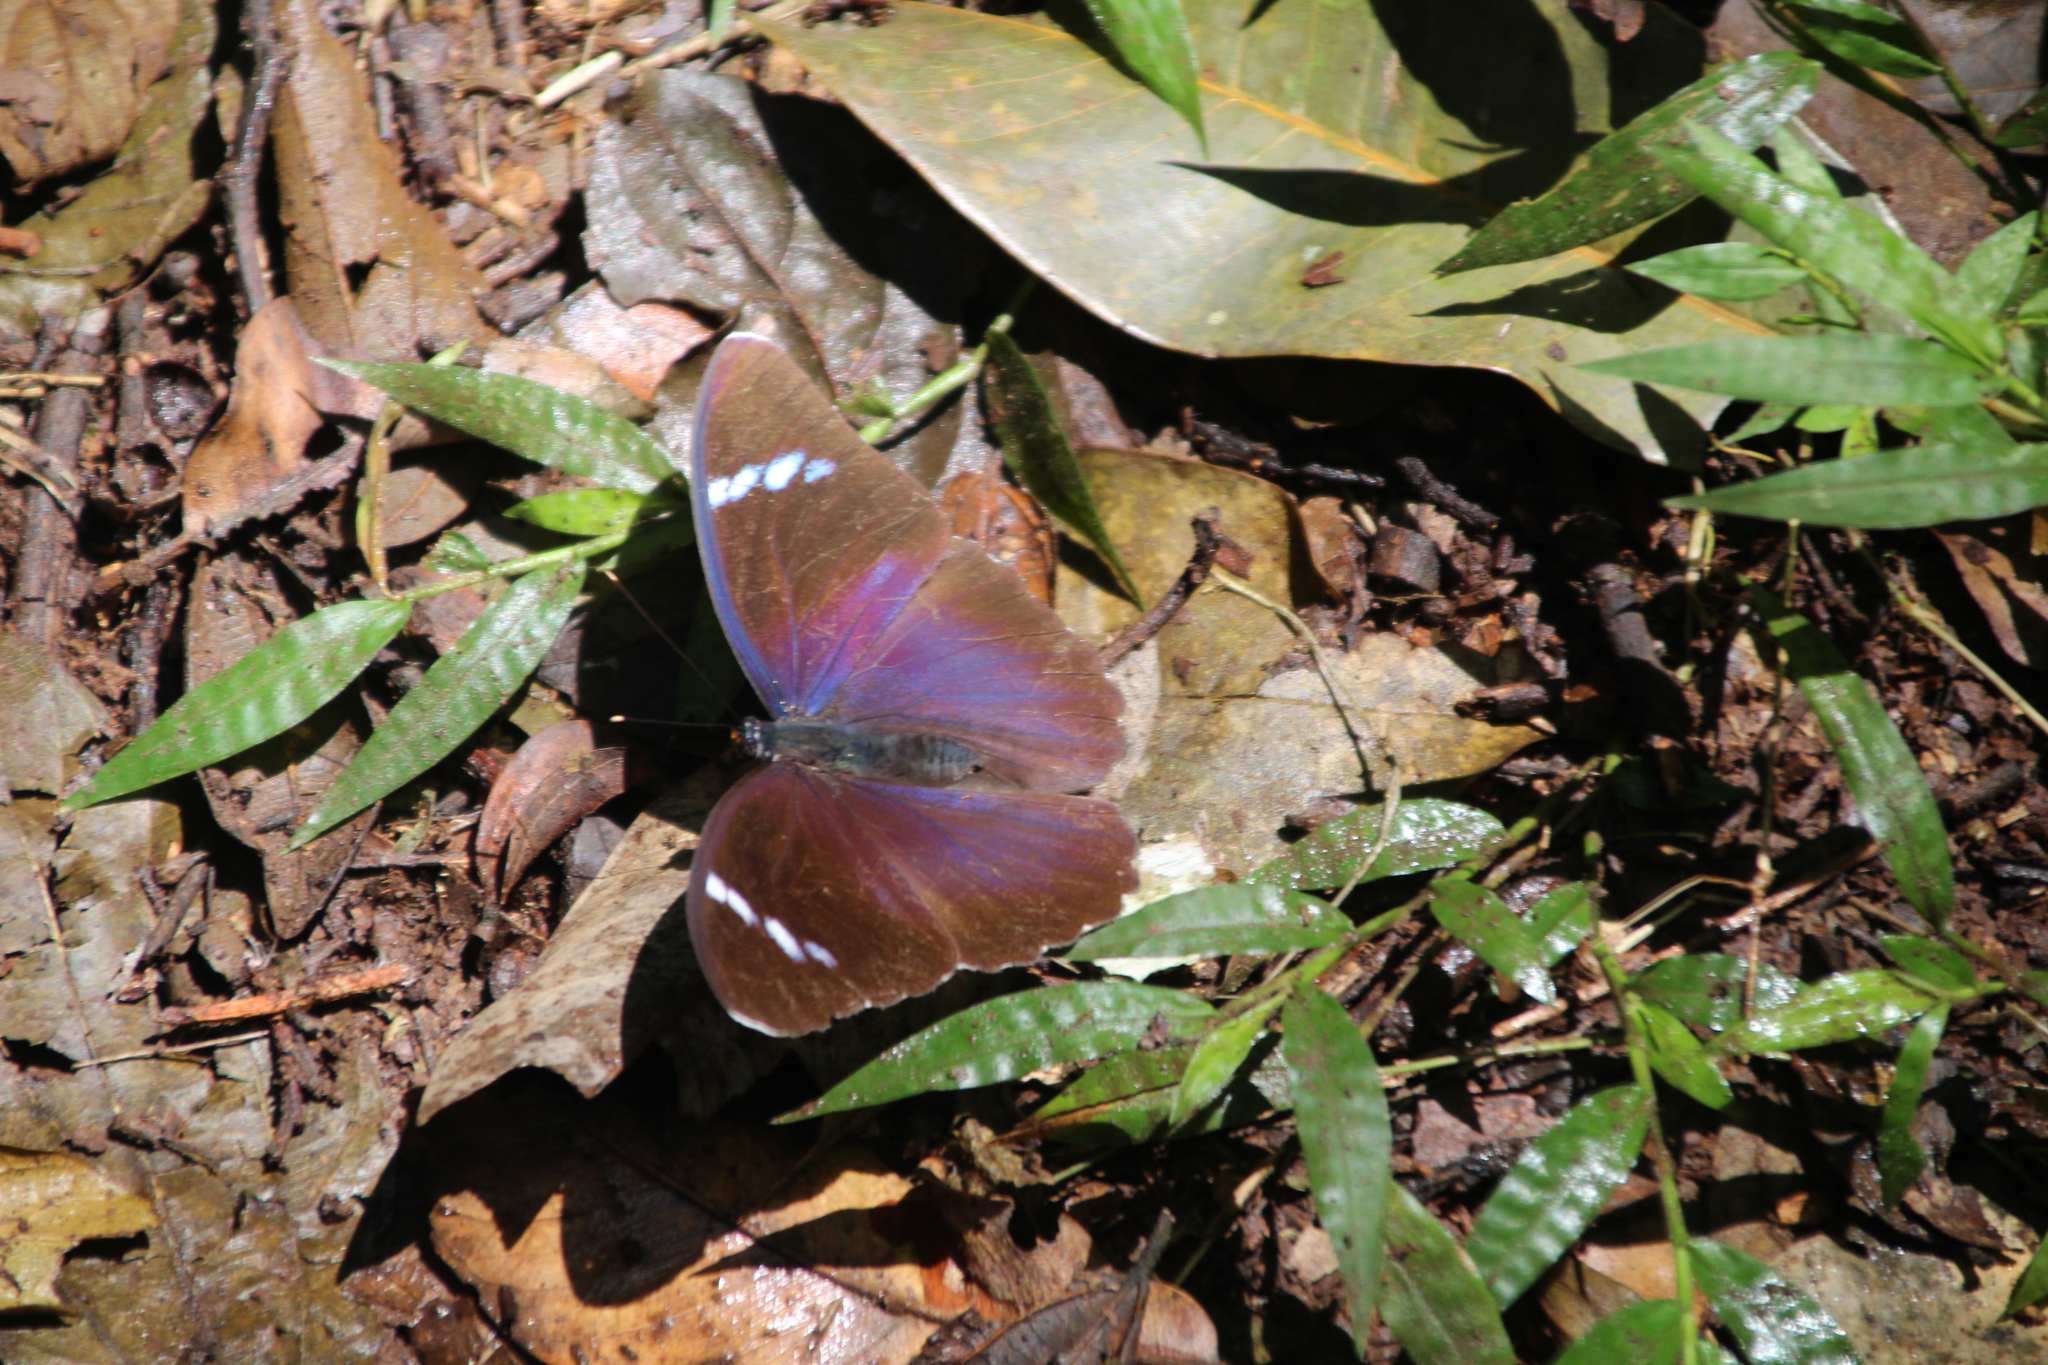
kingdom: Animalia
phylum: Arthropoda
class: Insecta
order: Lepidoptera
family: Nymphalidae
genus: Euphaedra
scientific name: Euphaedra rex
